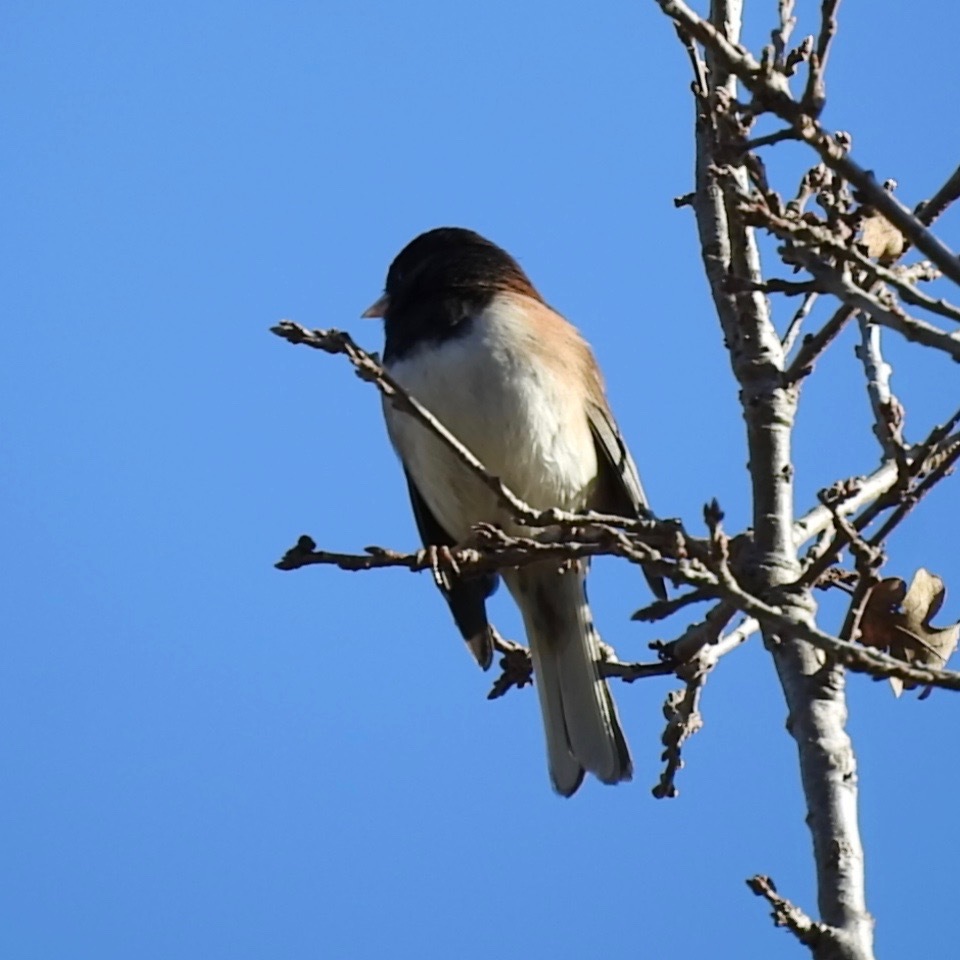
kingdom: Animalia
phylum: Chordata
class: Aves
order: Passeriformes
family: Passerellidae
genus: Junco
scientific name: Junco hyemalis
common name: Dark-eyed junco
